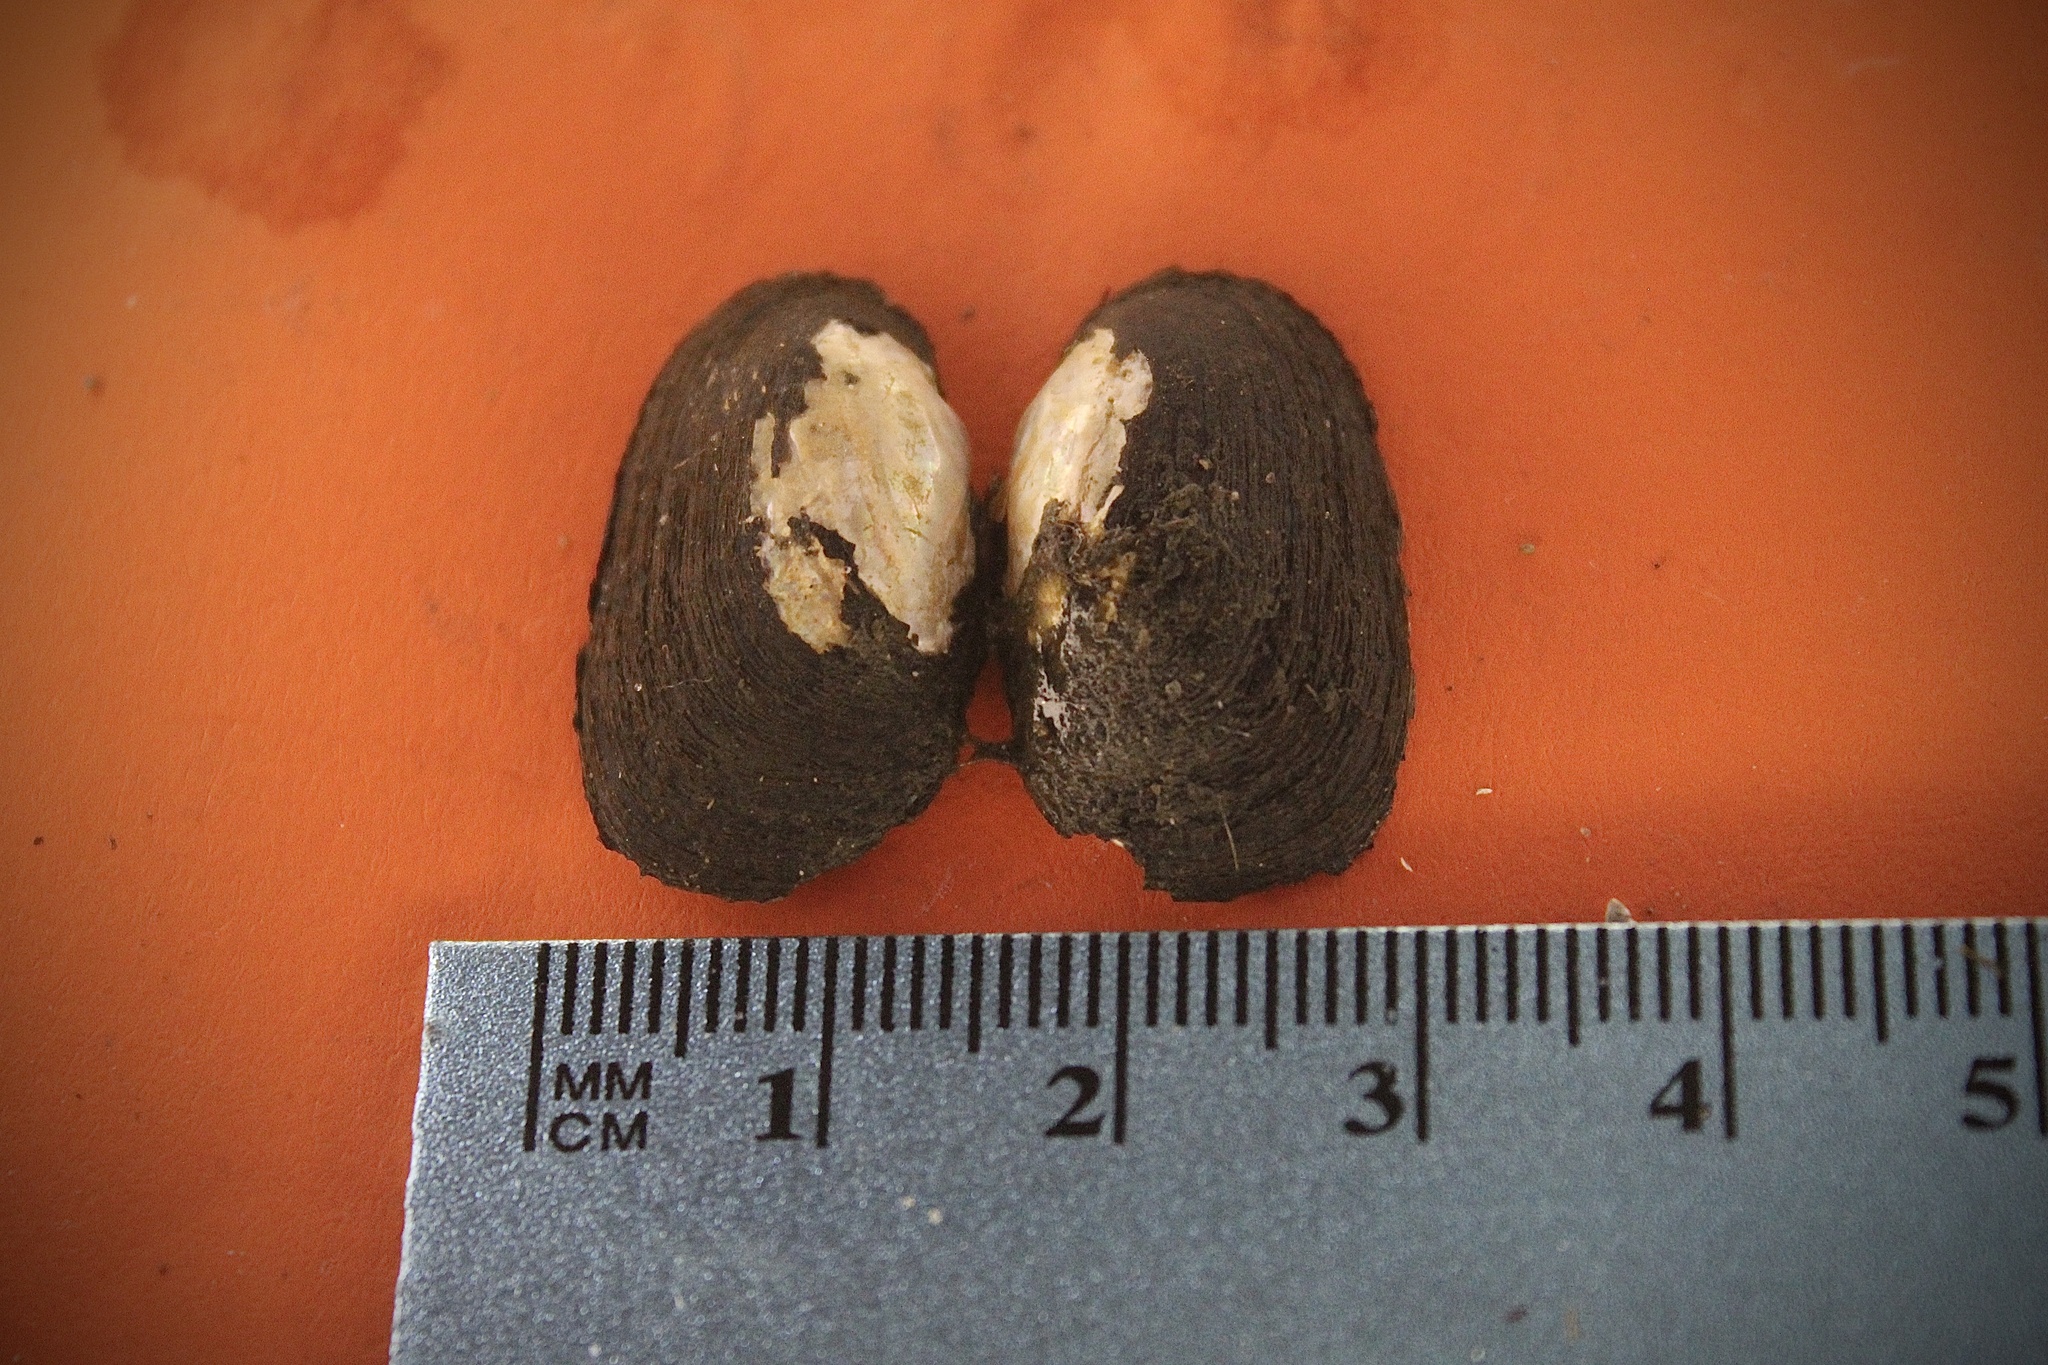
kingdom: Animalia
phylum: Mollusca
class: Bivalvia
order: Unionida
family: Unionidae
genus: Toxolasma
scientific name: Toxolasma parvum
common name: Lilliput
